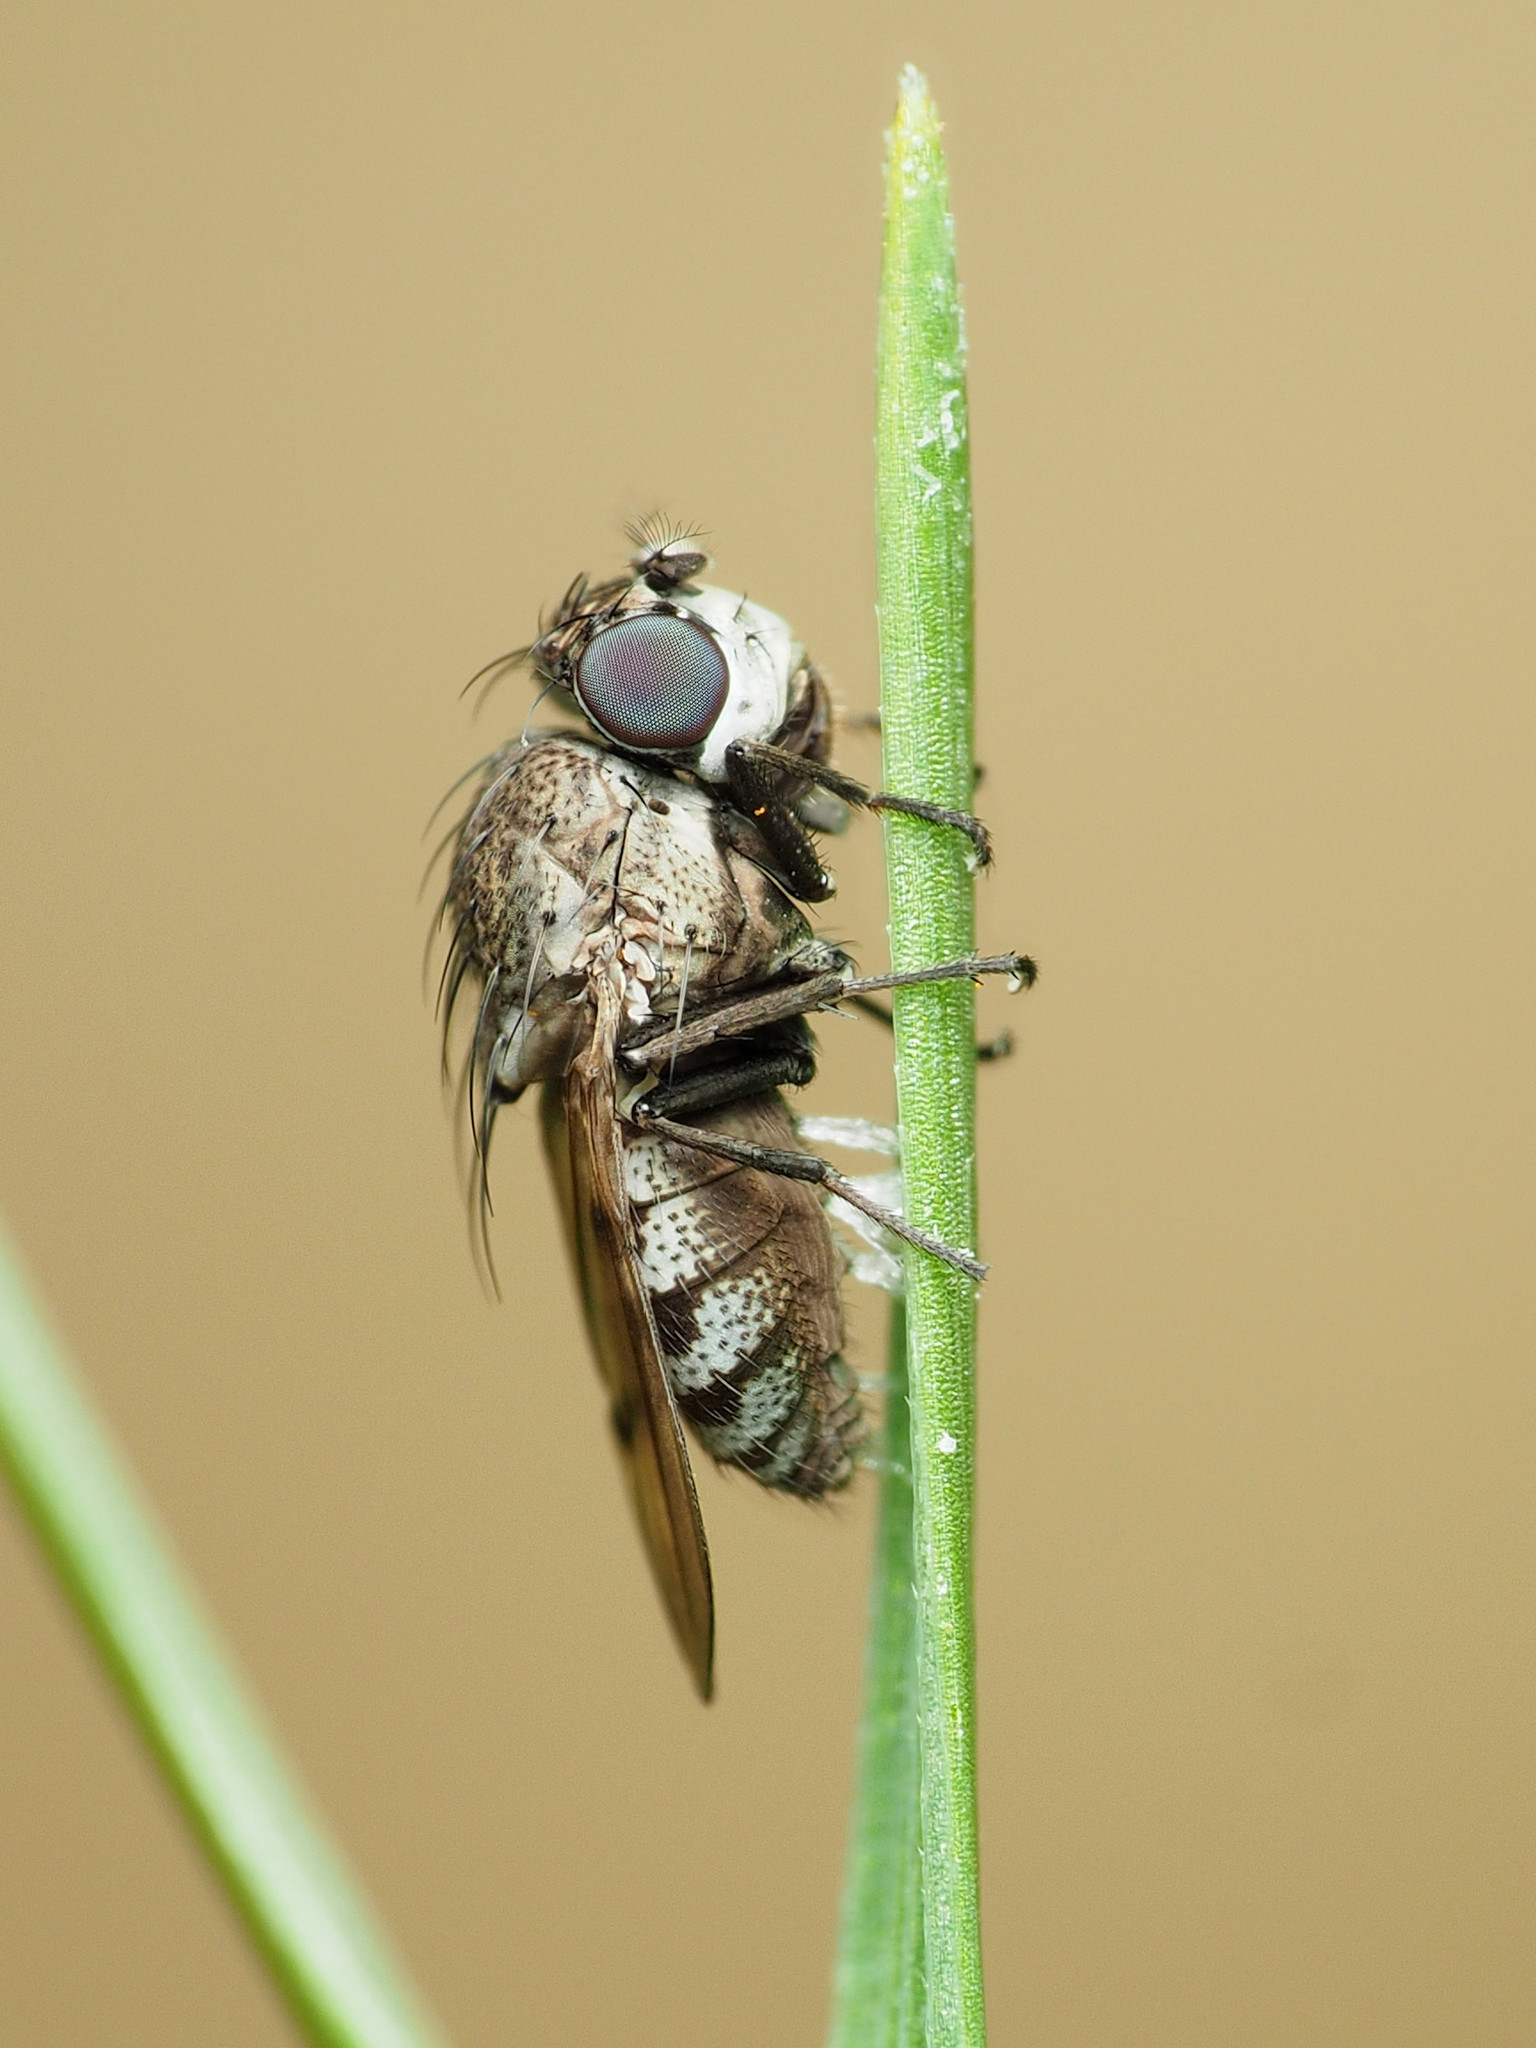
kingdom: Animalia
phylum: Arthropoda
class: Insecta
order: Diptera
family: Ephydridae
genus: Paralimna
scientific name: Paralimna punctipennis
